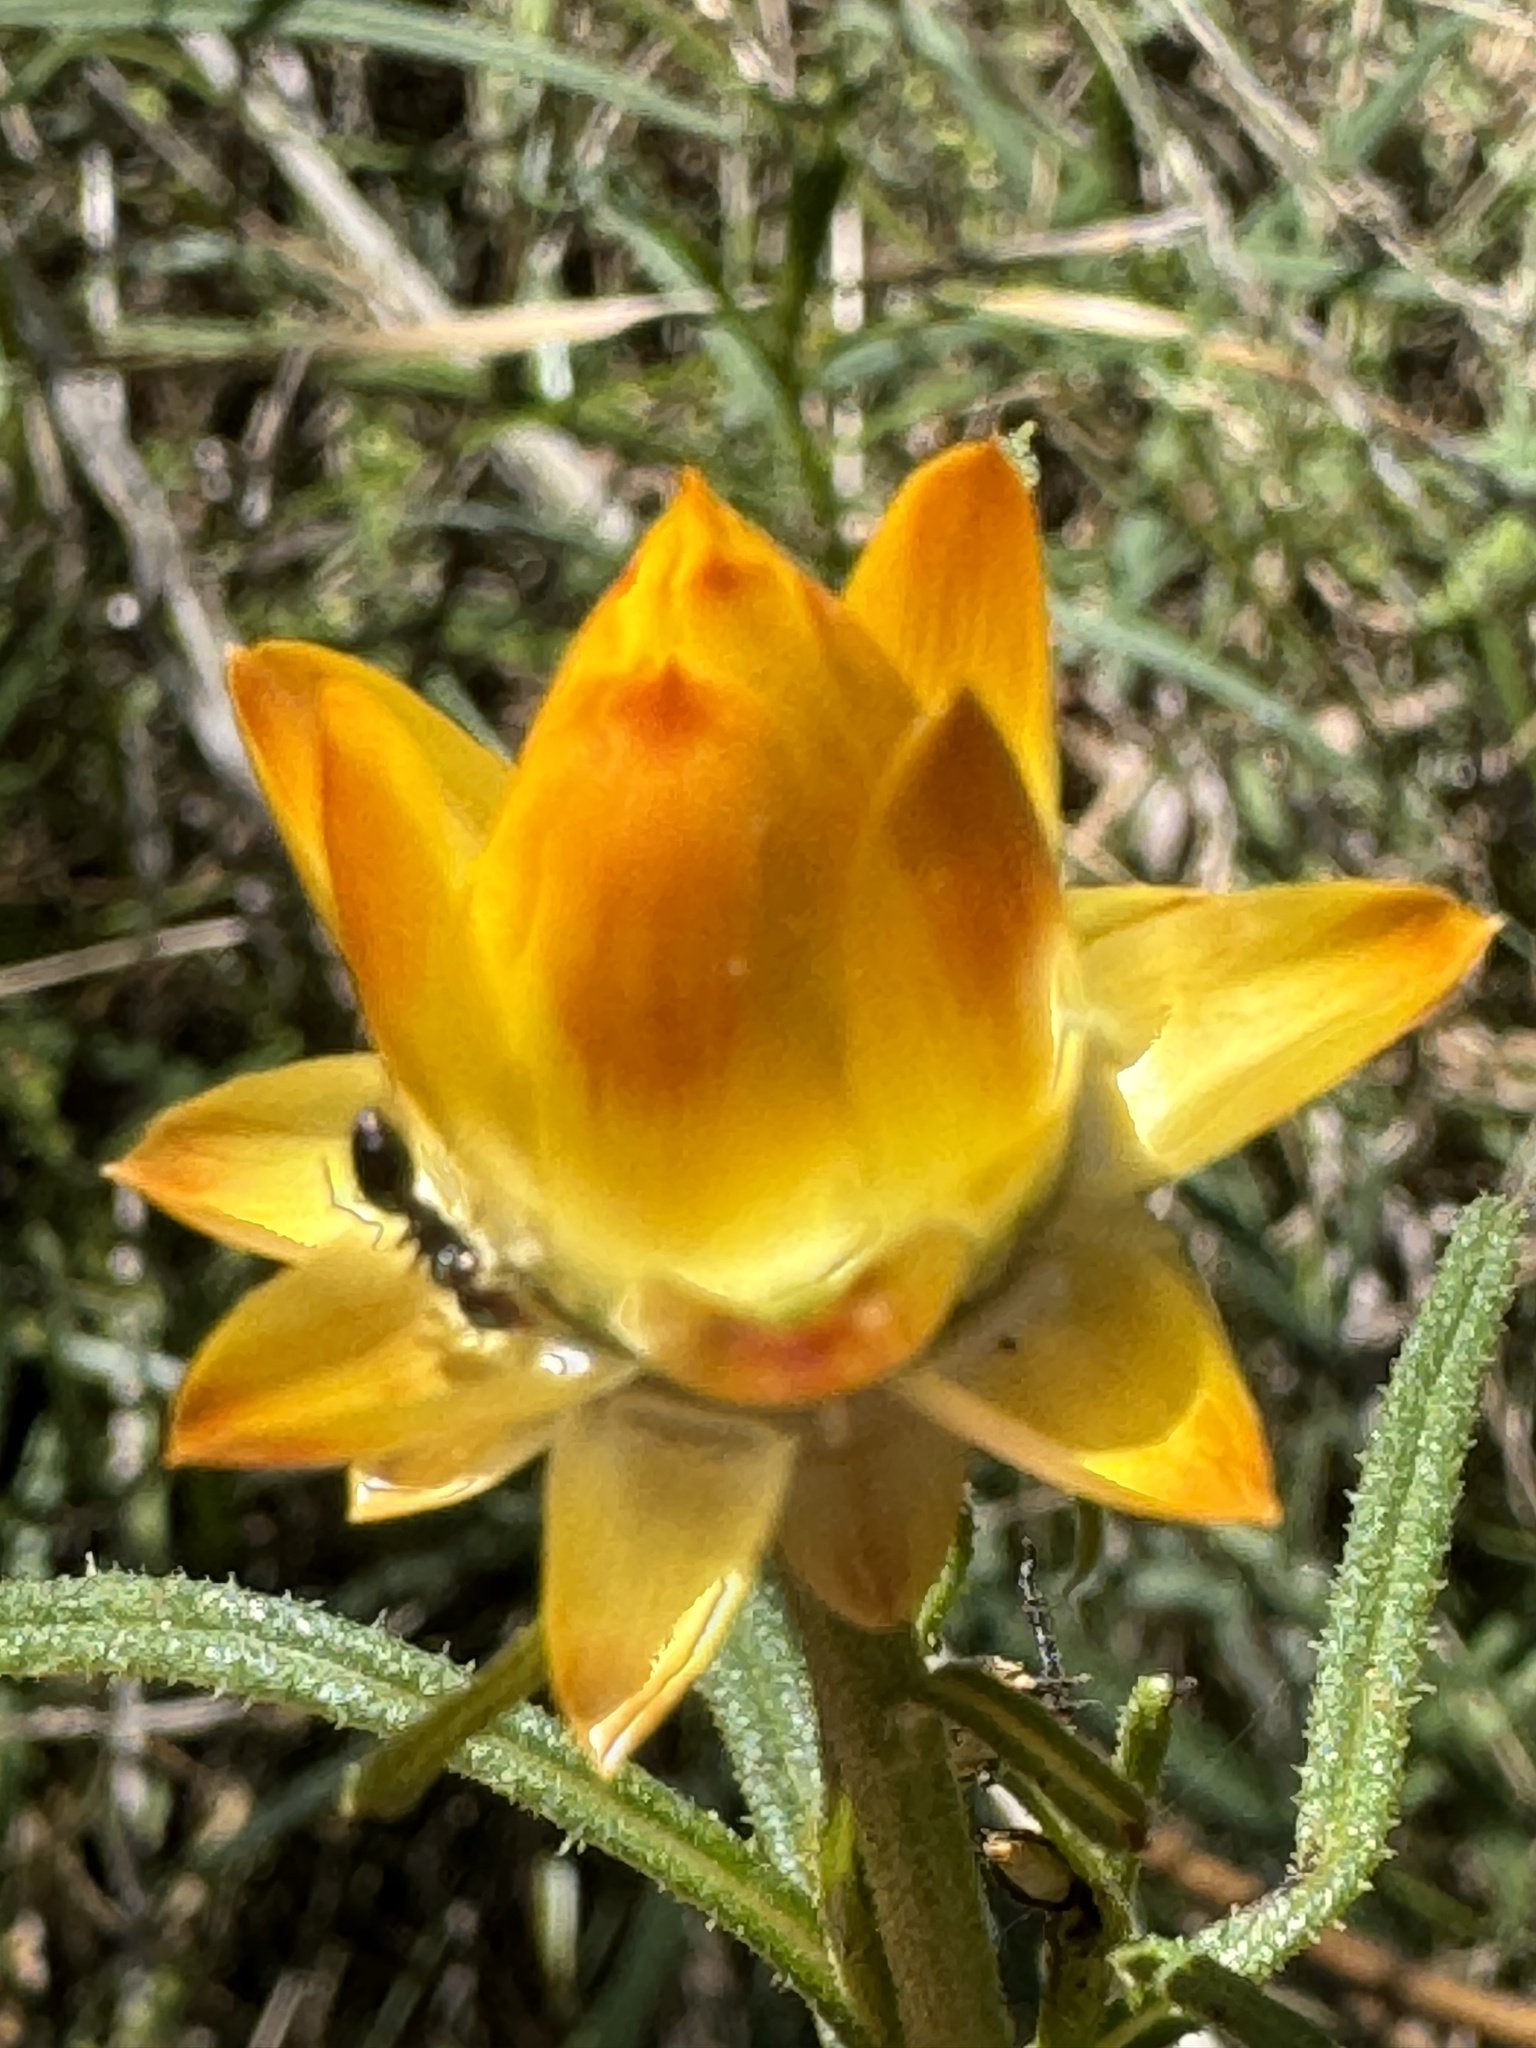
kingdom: Plantae
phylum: Tracheophyta
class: Magnoliopsida
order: Asterales
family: Asteraceae
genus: Xerochrysum
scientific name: Xerochrysum viscosum
